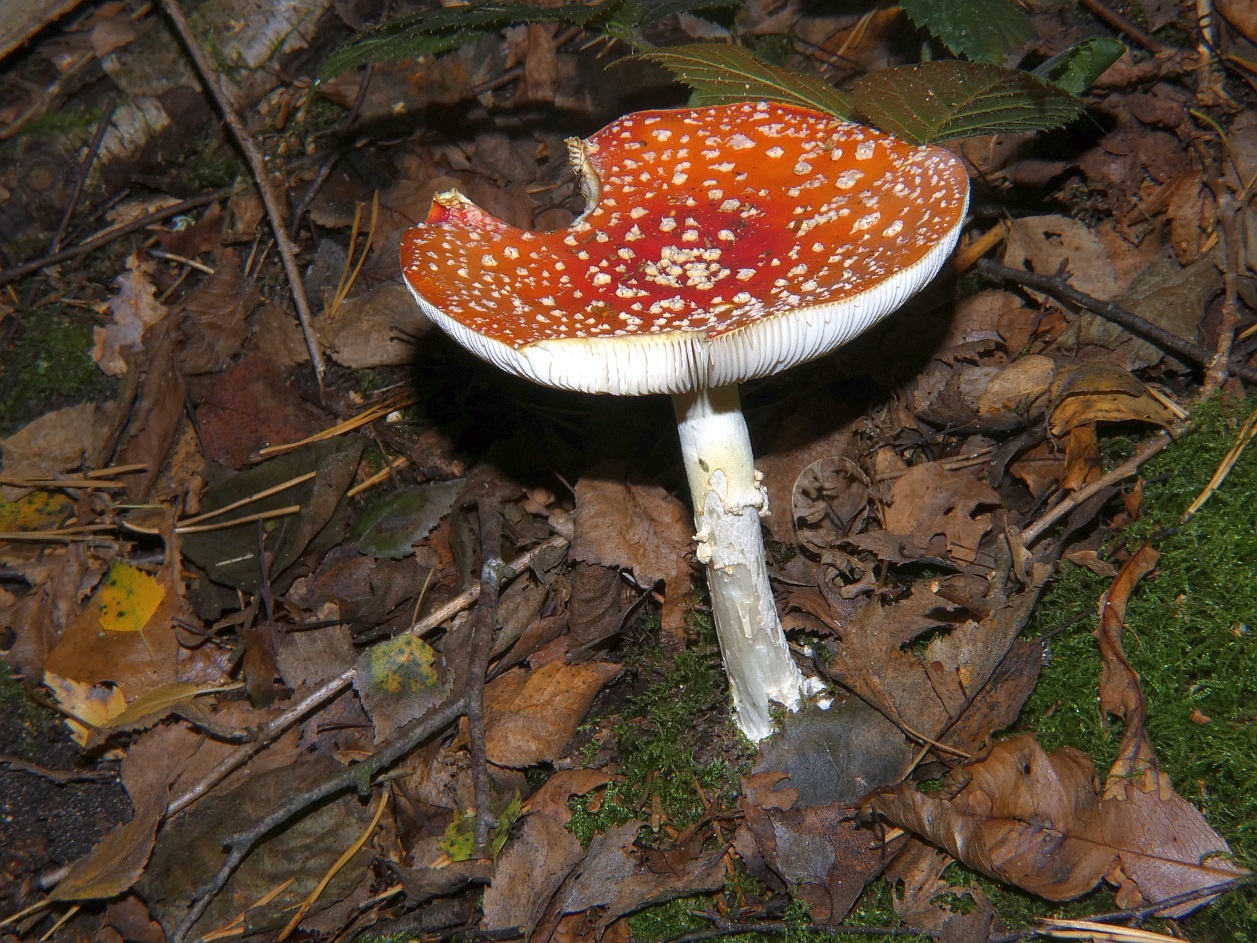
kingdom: Fungi
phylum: Basidiomycota
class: Agaricomycetes
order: Agaricales
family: Amanitaceae
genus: Amanita
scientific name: Amanita muscaria
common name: Fly agaric
